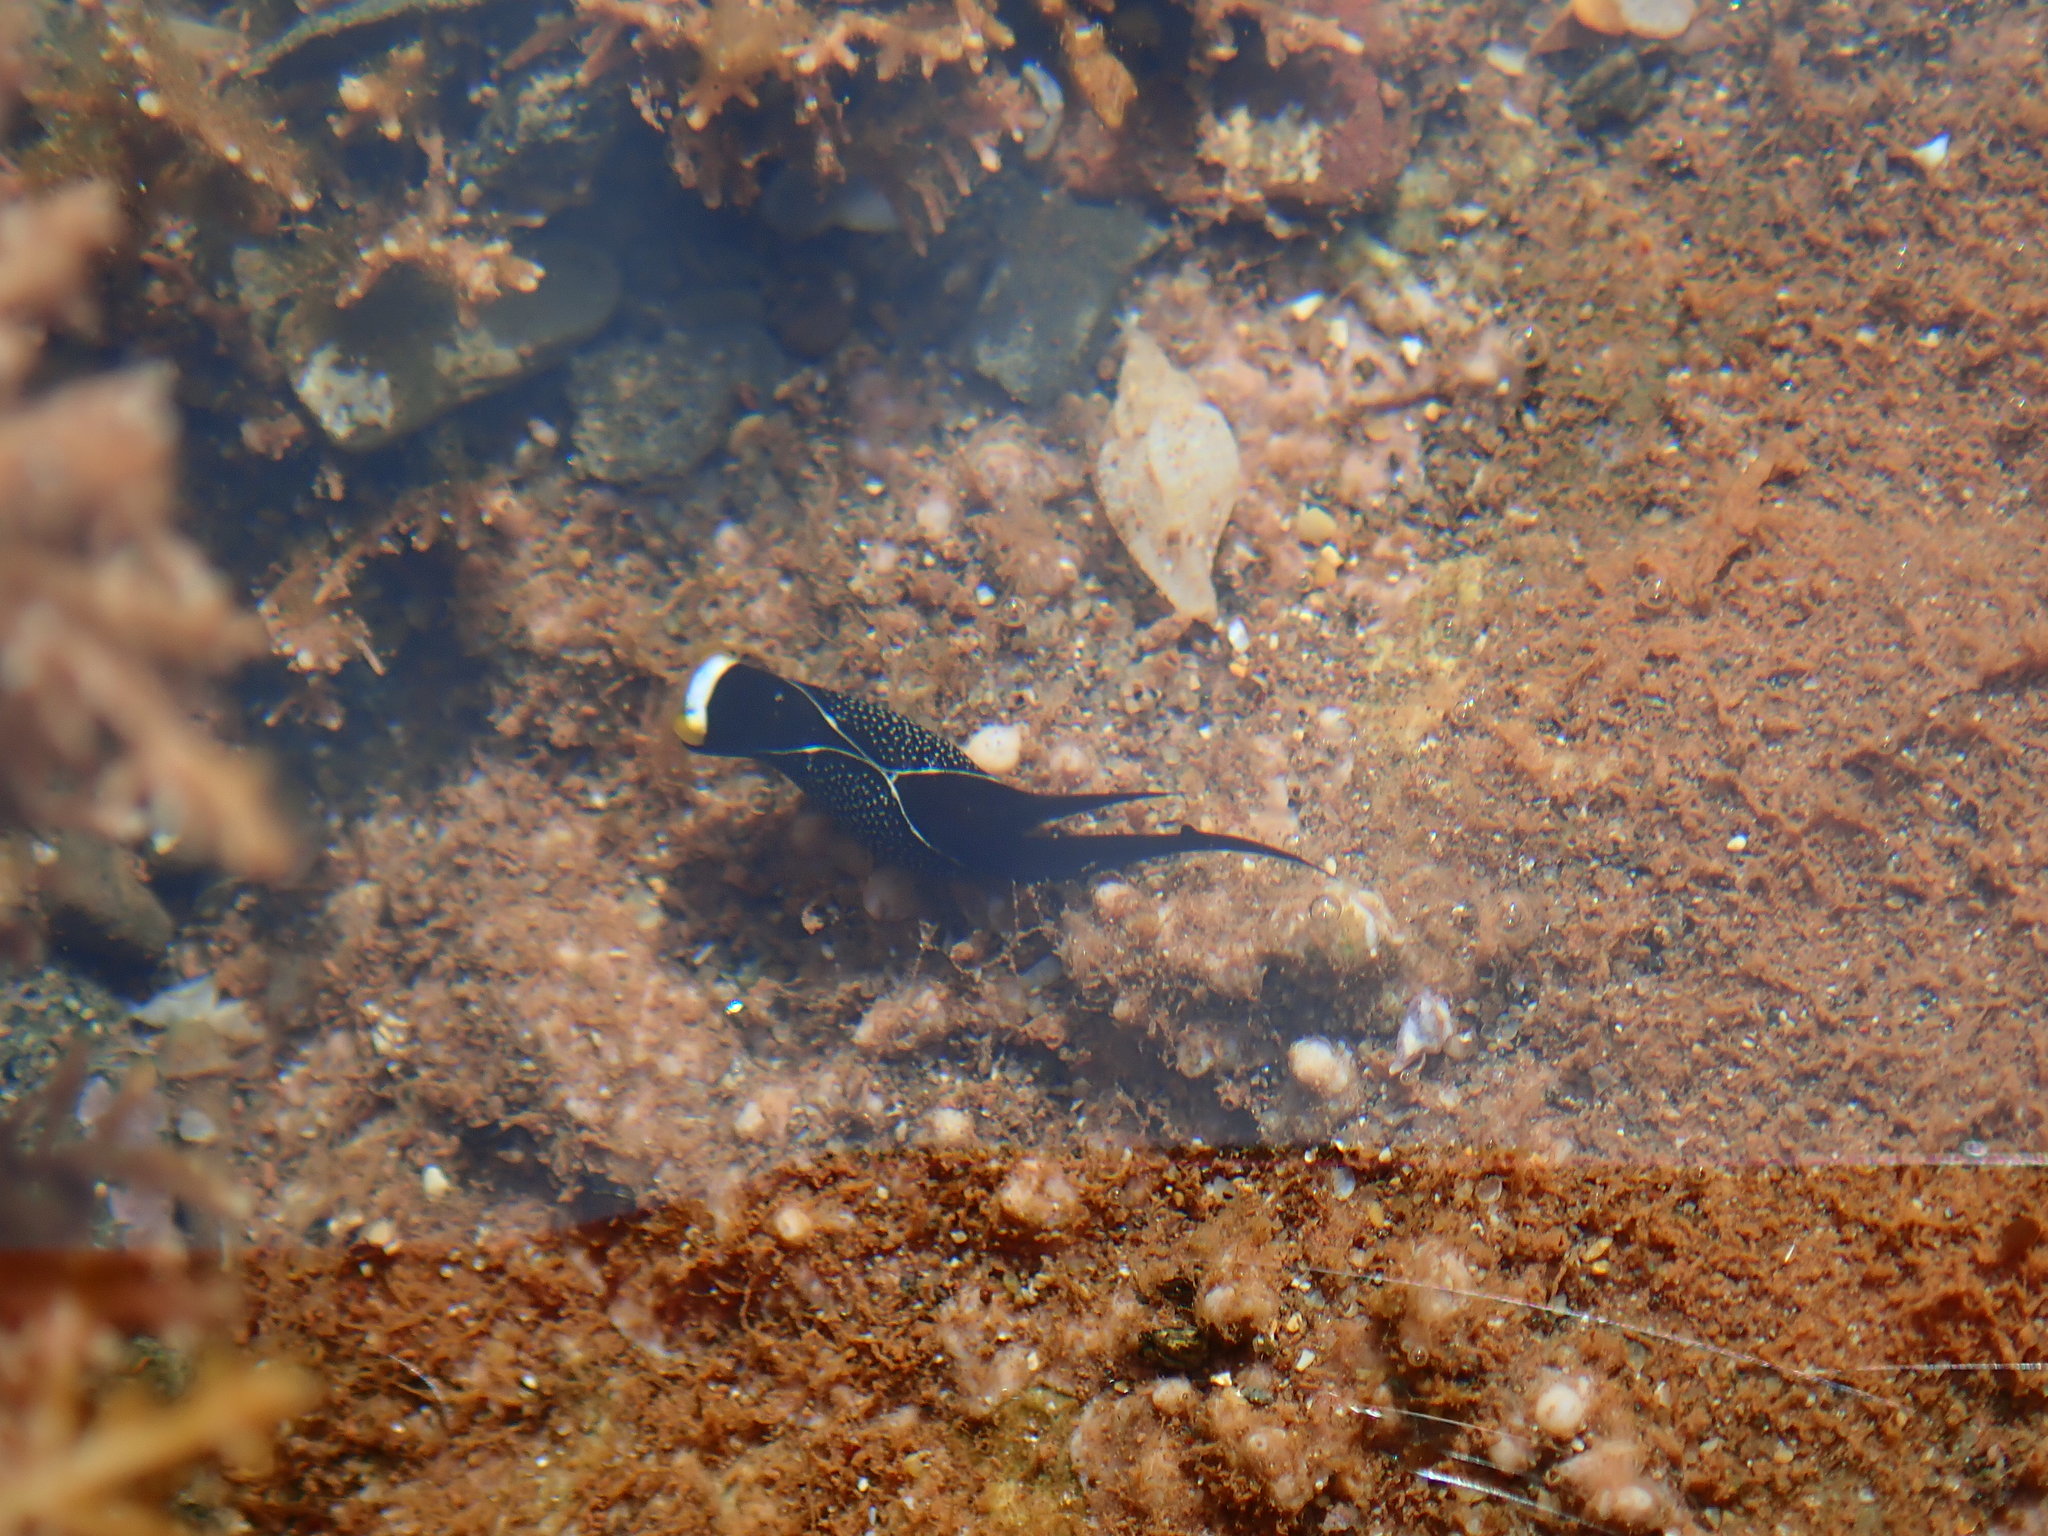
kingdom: Animalia
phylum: Mollusca
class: Gastropoda
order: Cephalaspidea
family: Aglajidae
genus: Mariaglaja
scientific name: Mariaglaja inornata
